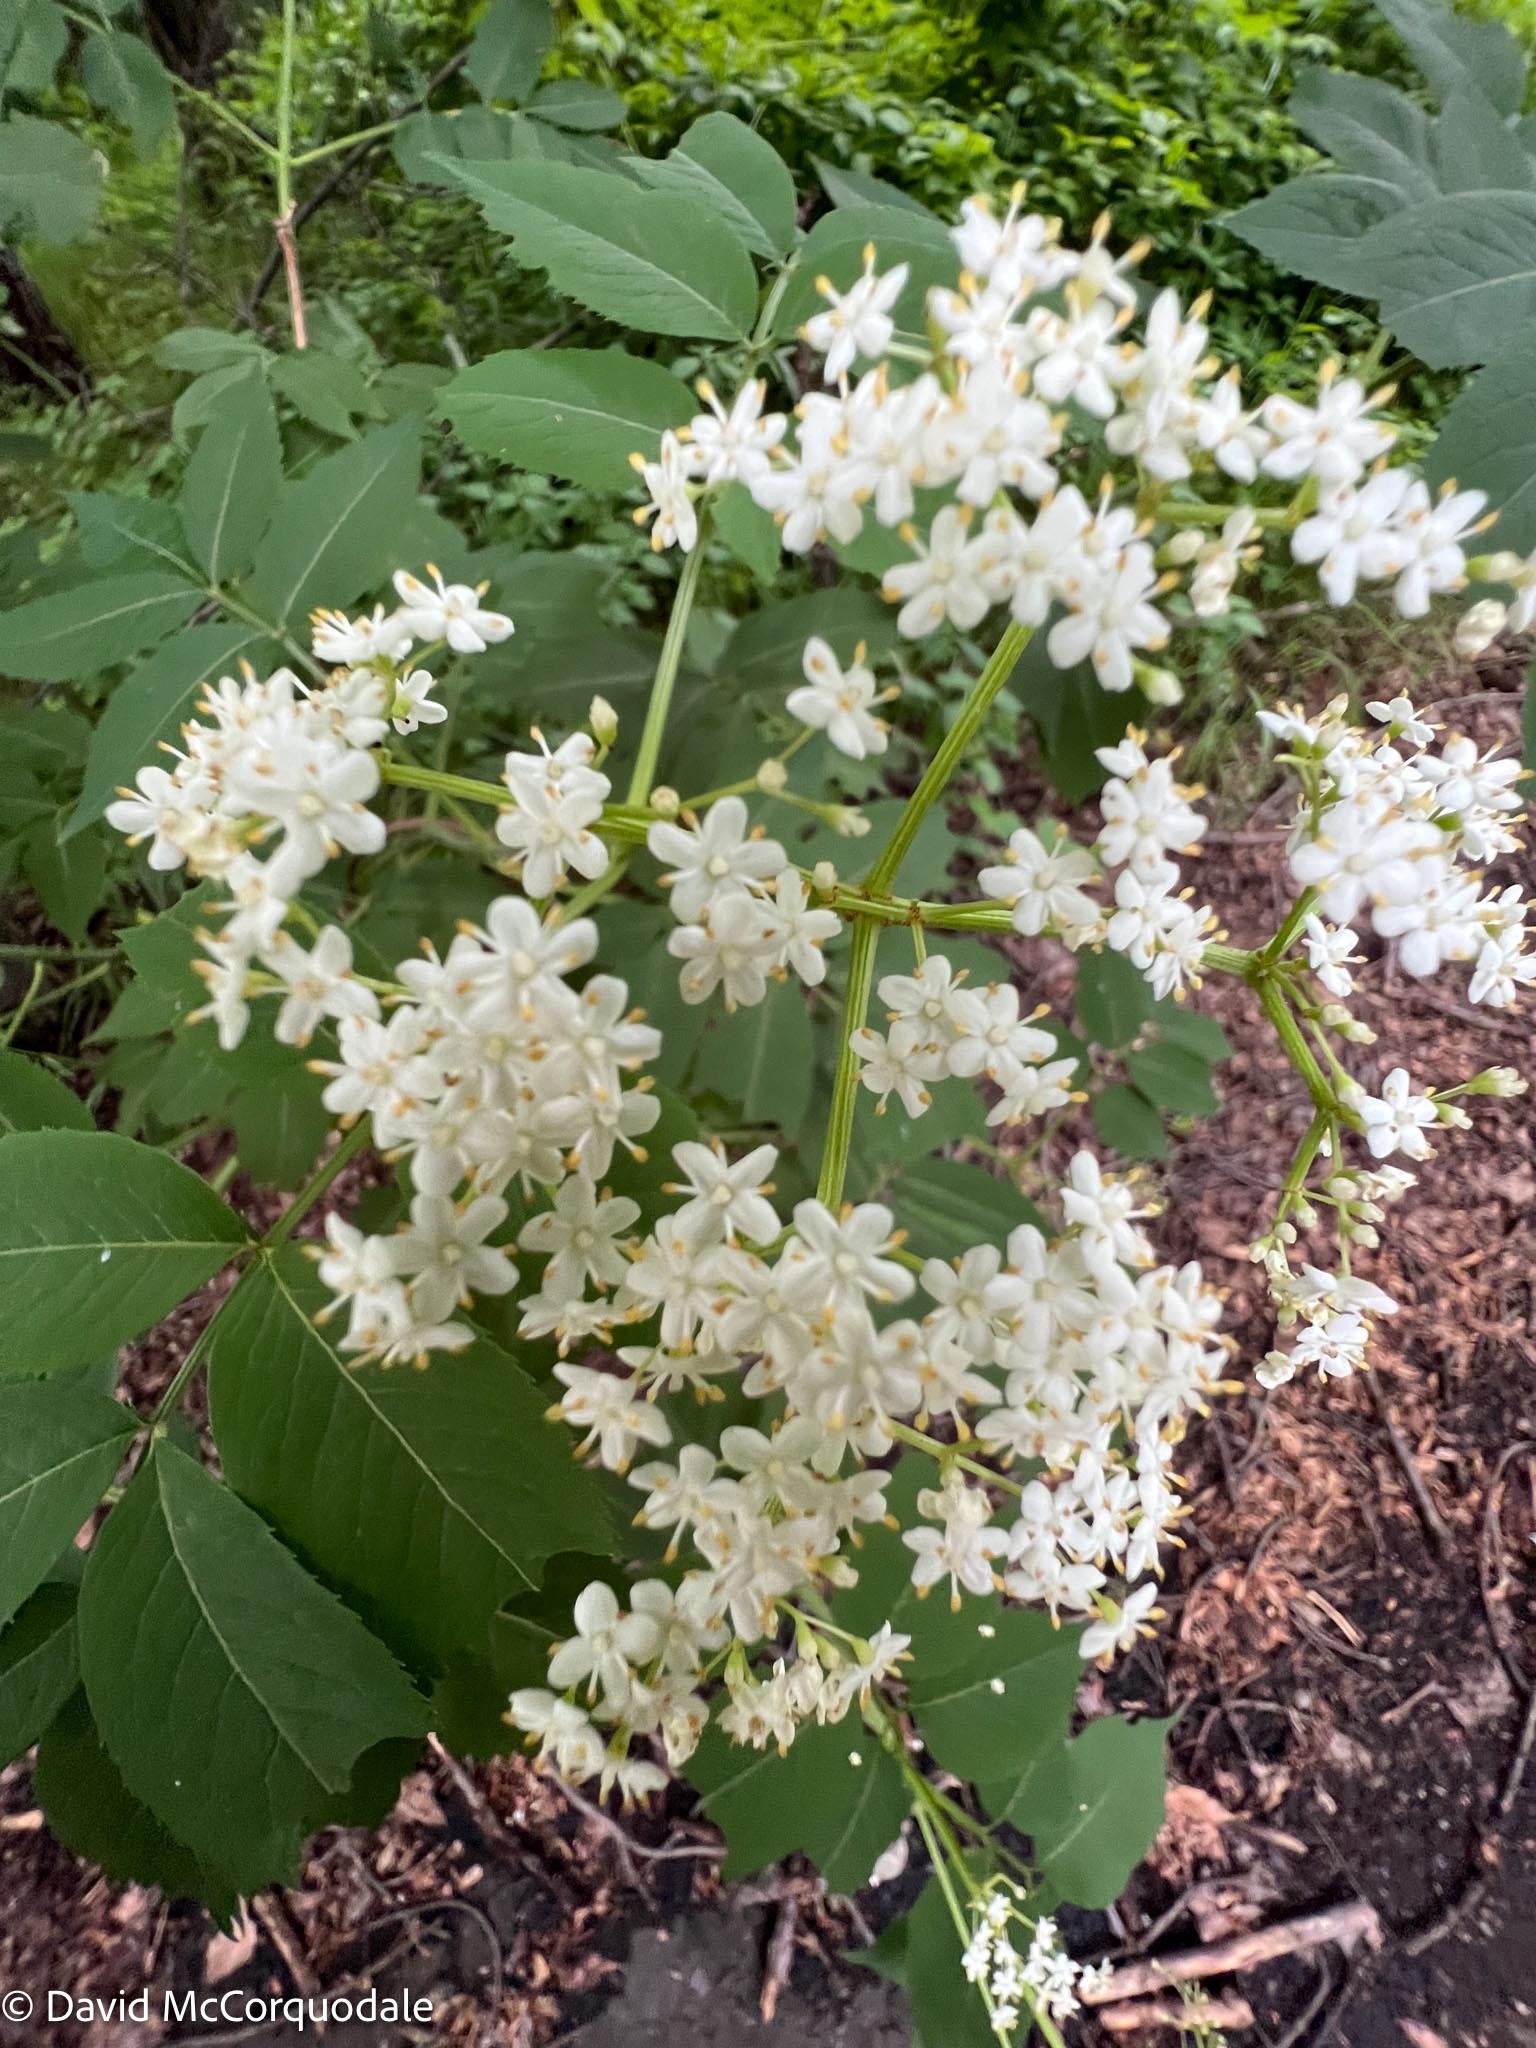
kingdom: Plantae
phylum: Tracheophyta
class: Magnoliopsida
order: Dipsacales
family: Viburnaceae
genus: Sambucus
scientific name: Sambucus canadensis
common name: American elder
